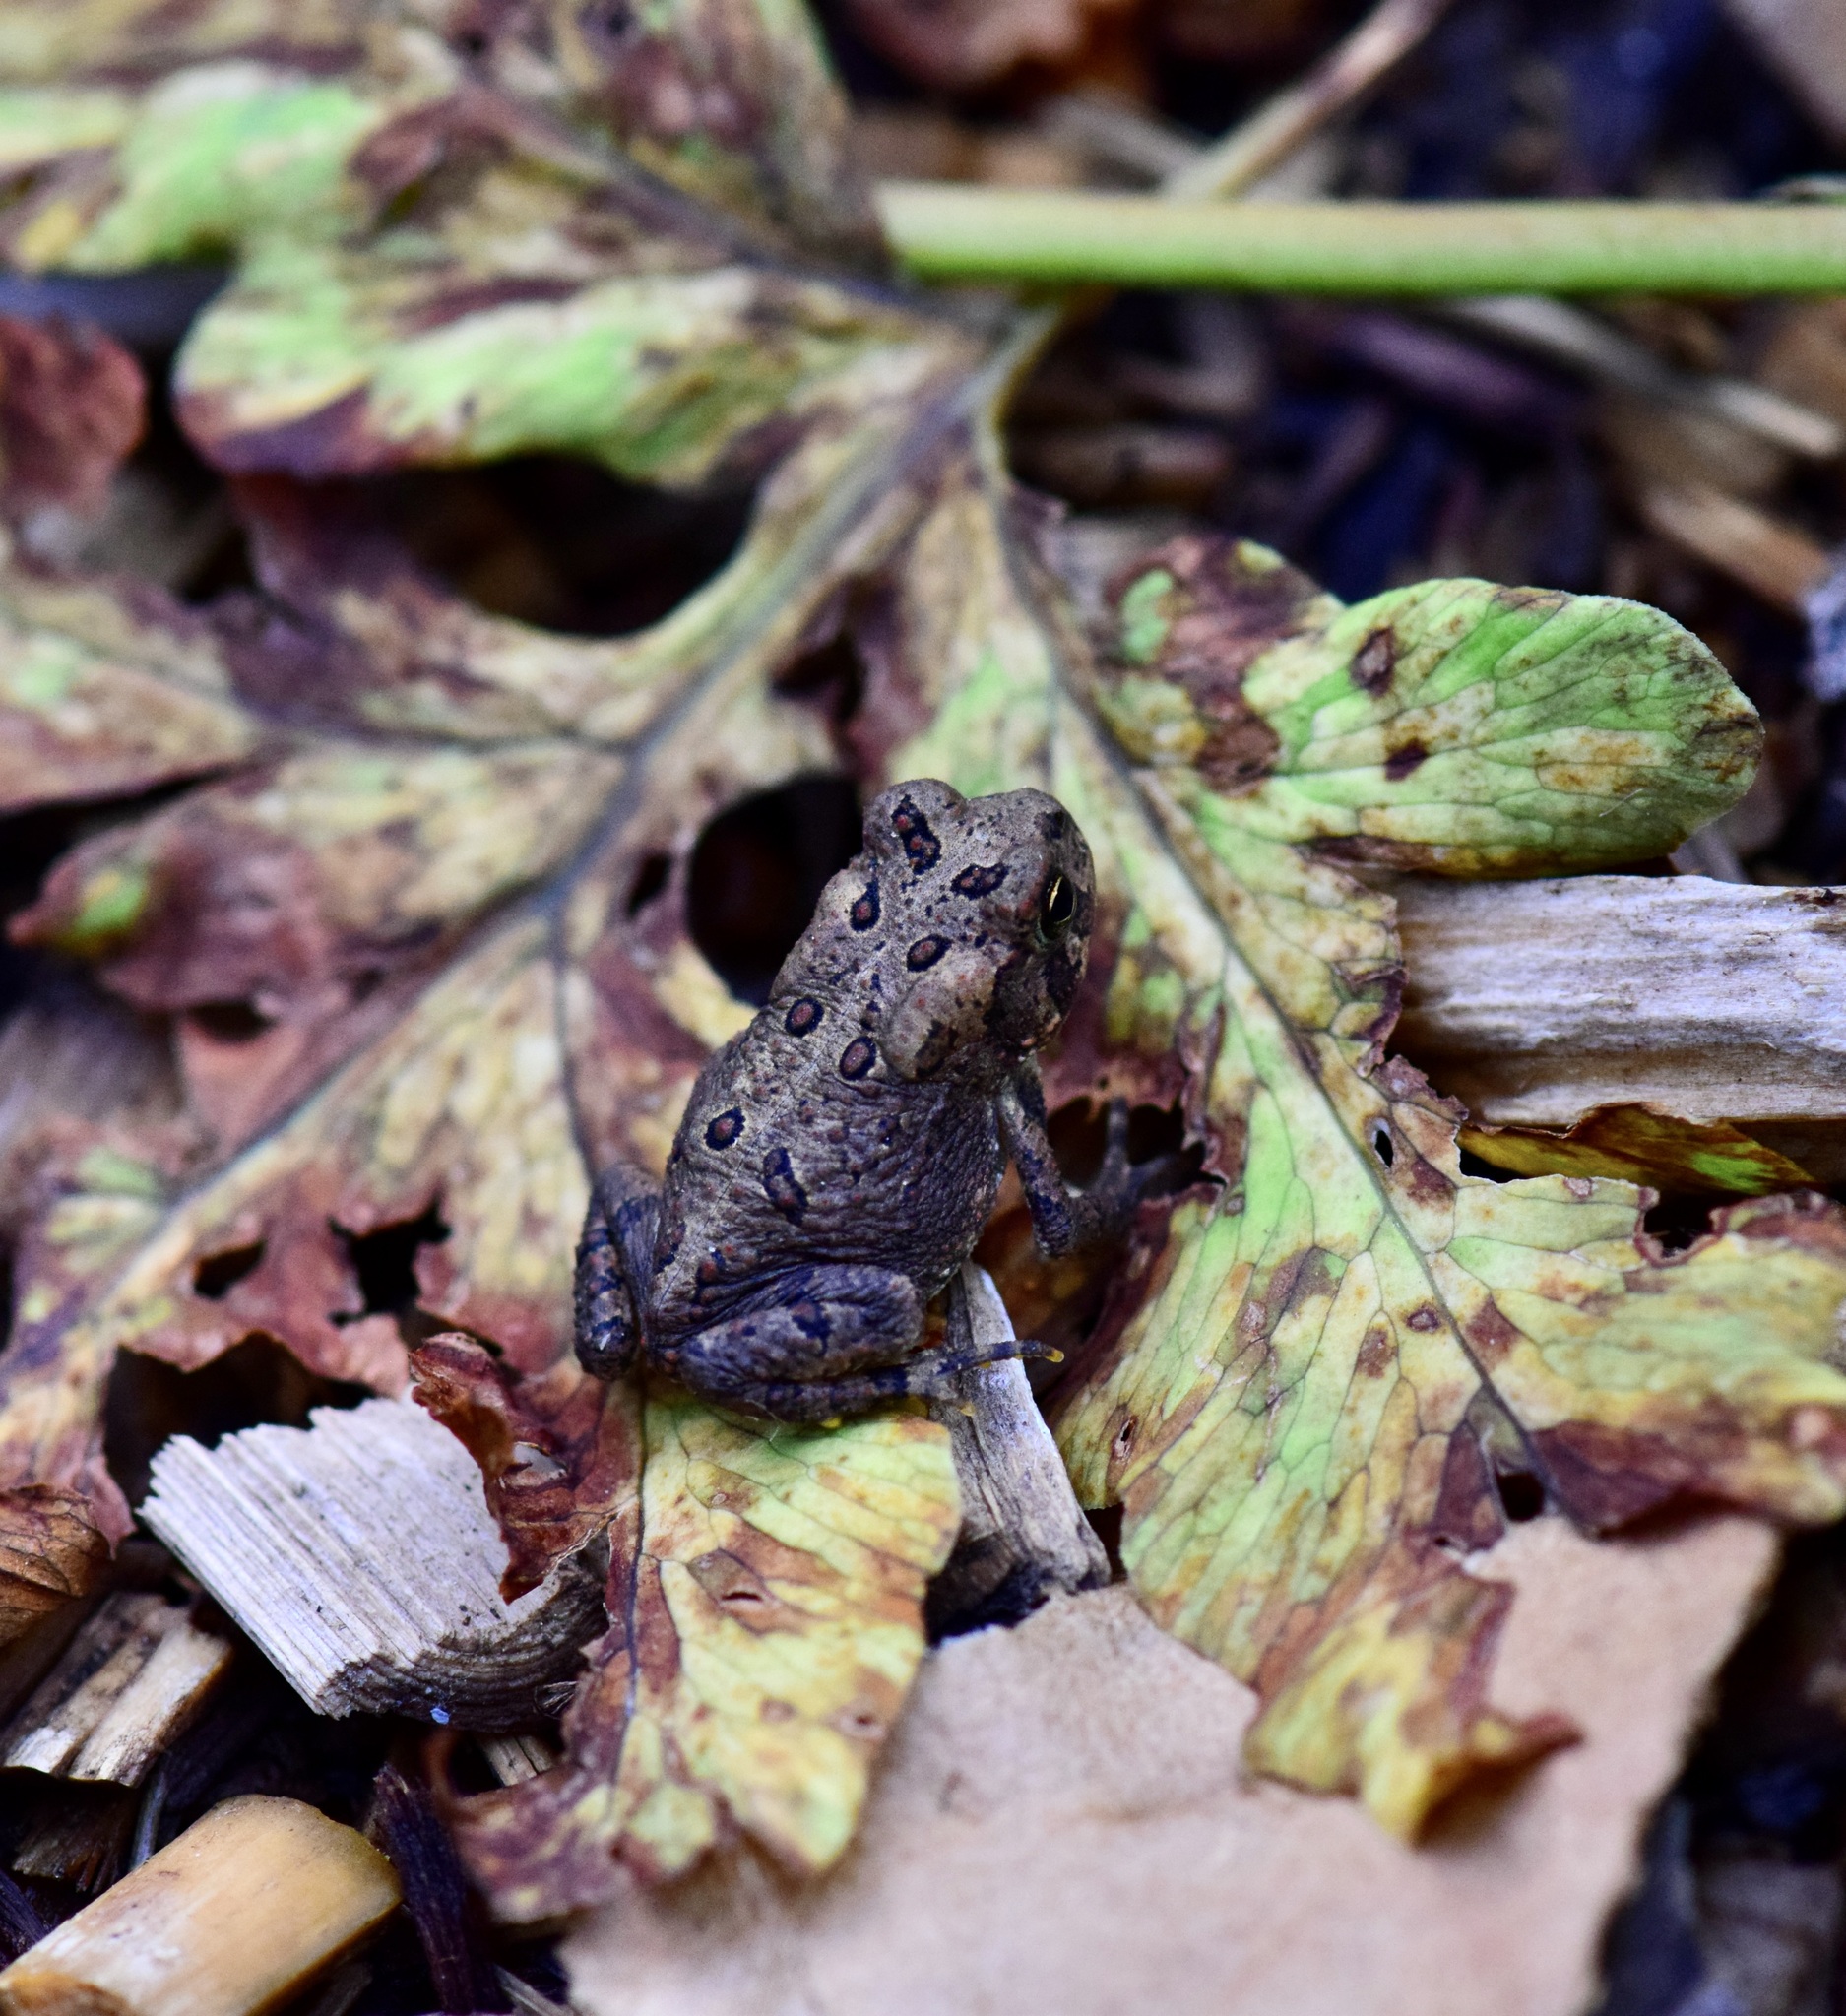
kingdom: Animalia
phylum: Chordata
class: Amphibia
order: Anura
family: Bufonidae
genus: Anaxyrus
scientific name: Anaxyrus americanus
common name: American toad
